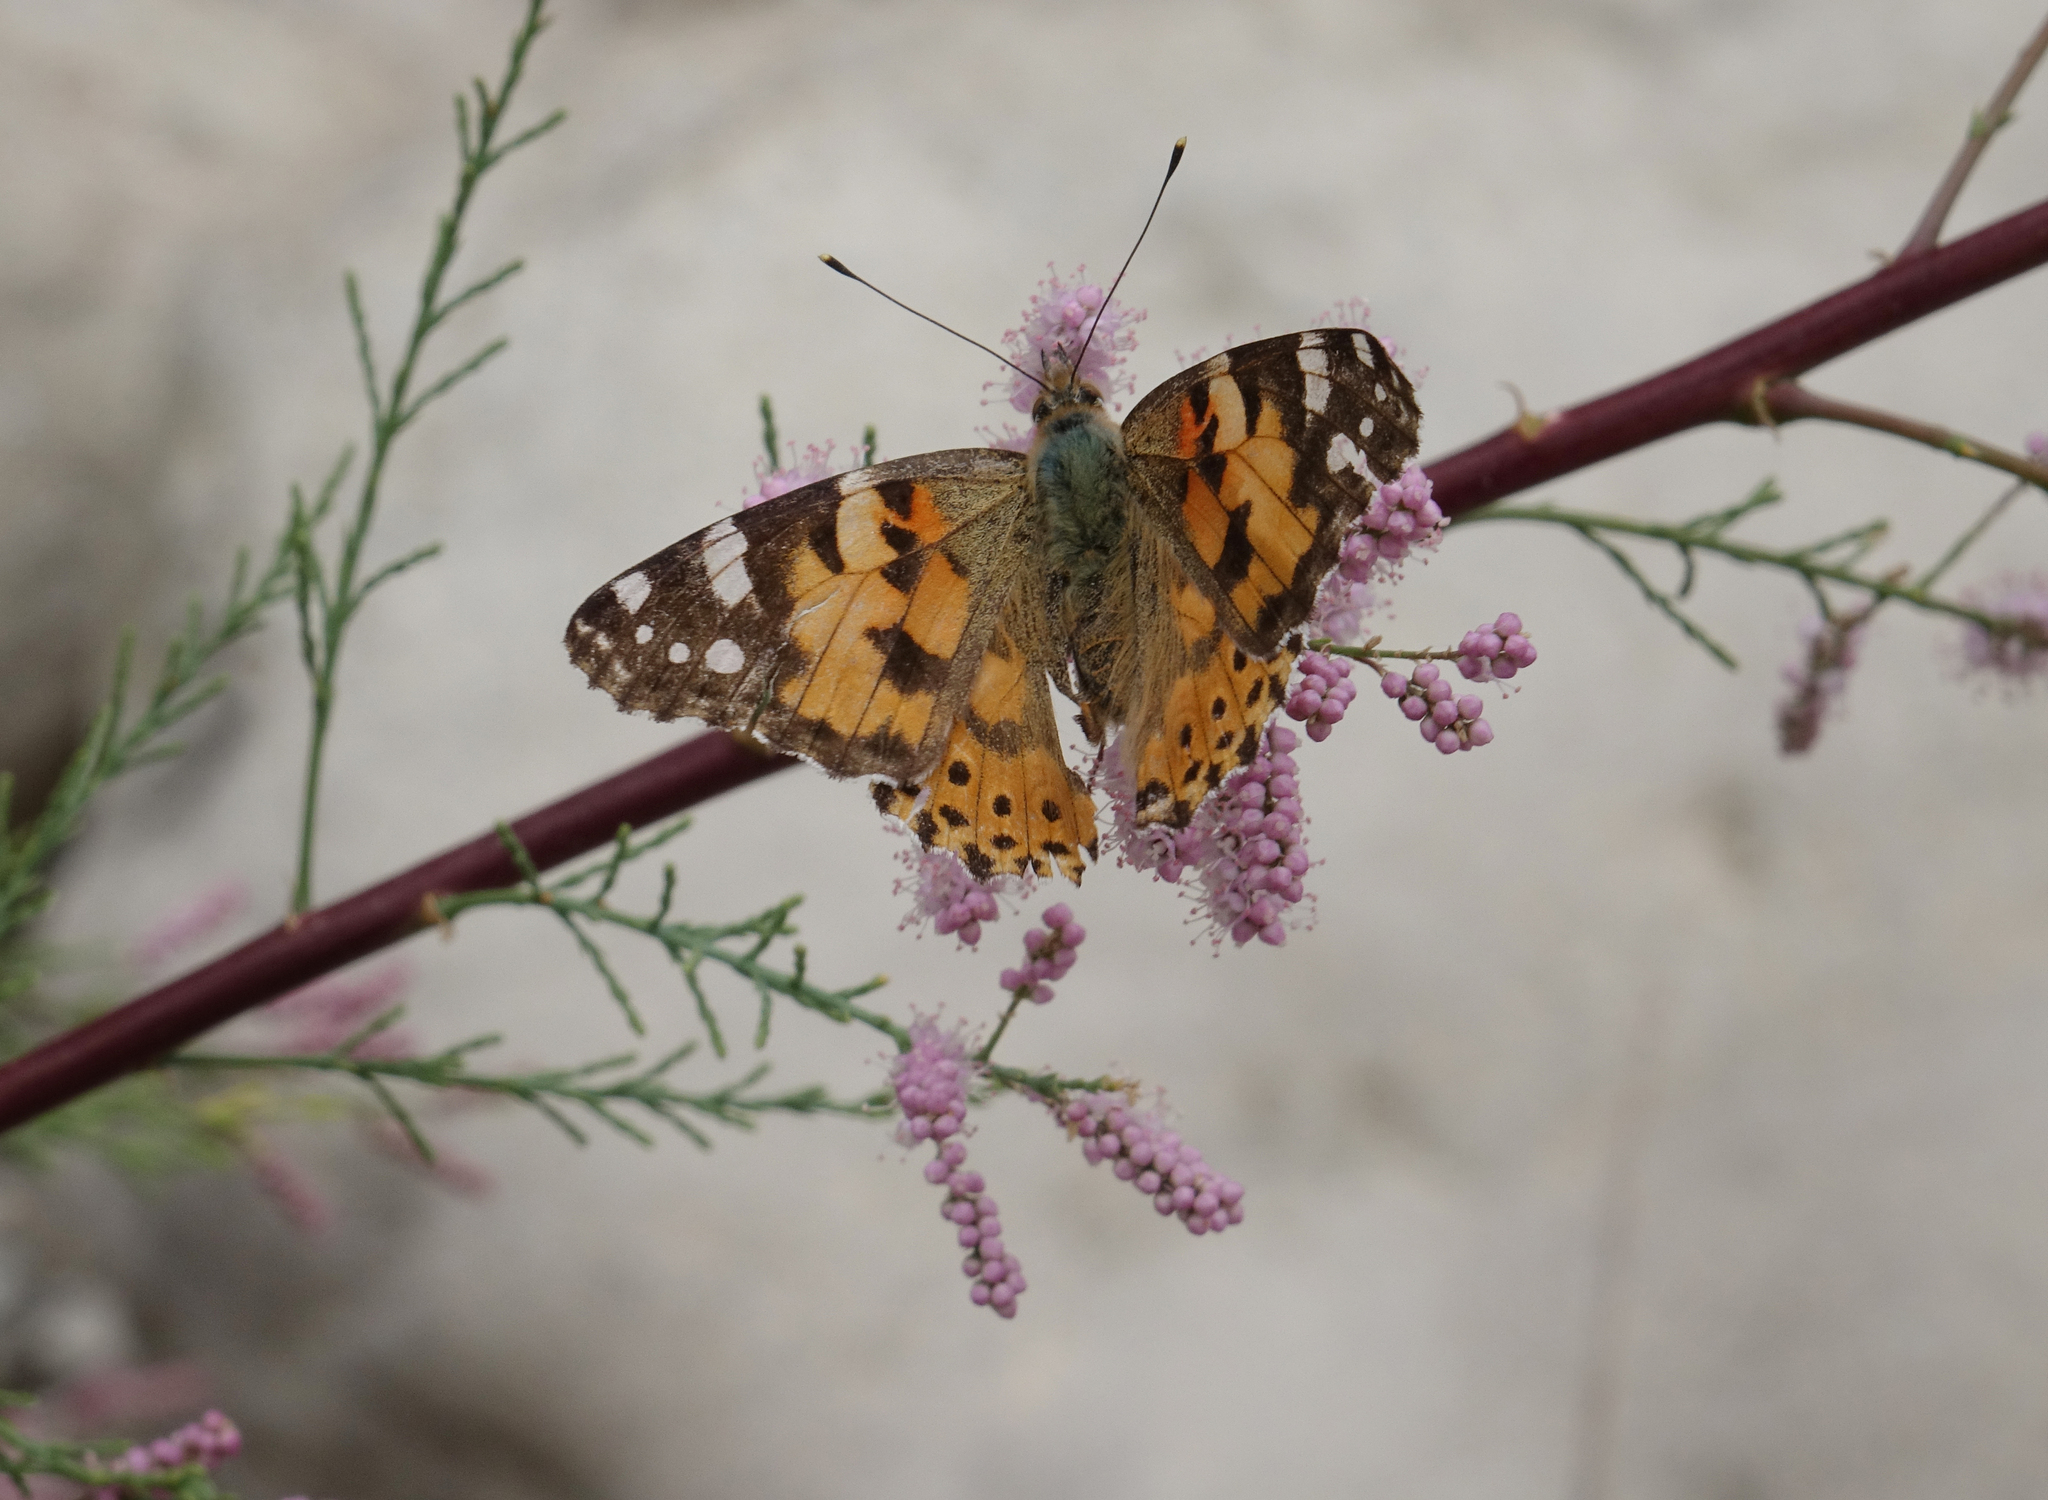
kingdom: Animalia
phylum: Arthropoda
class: Insecta
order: Lepidoptera
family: Nymphalidae
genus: Vanessa
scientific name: Vanessa cardui
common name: Painted lady
